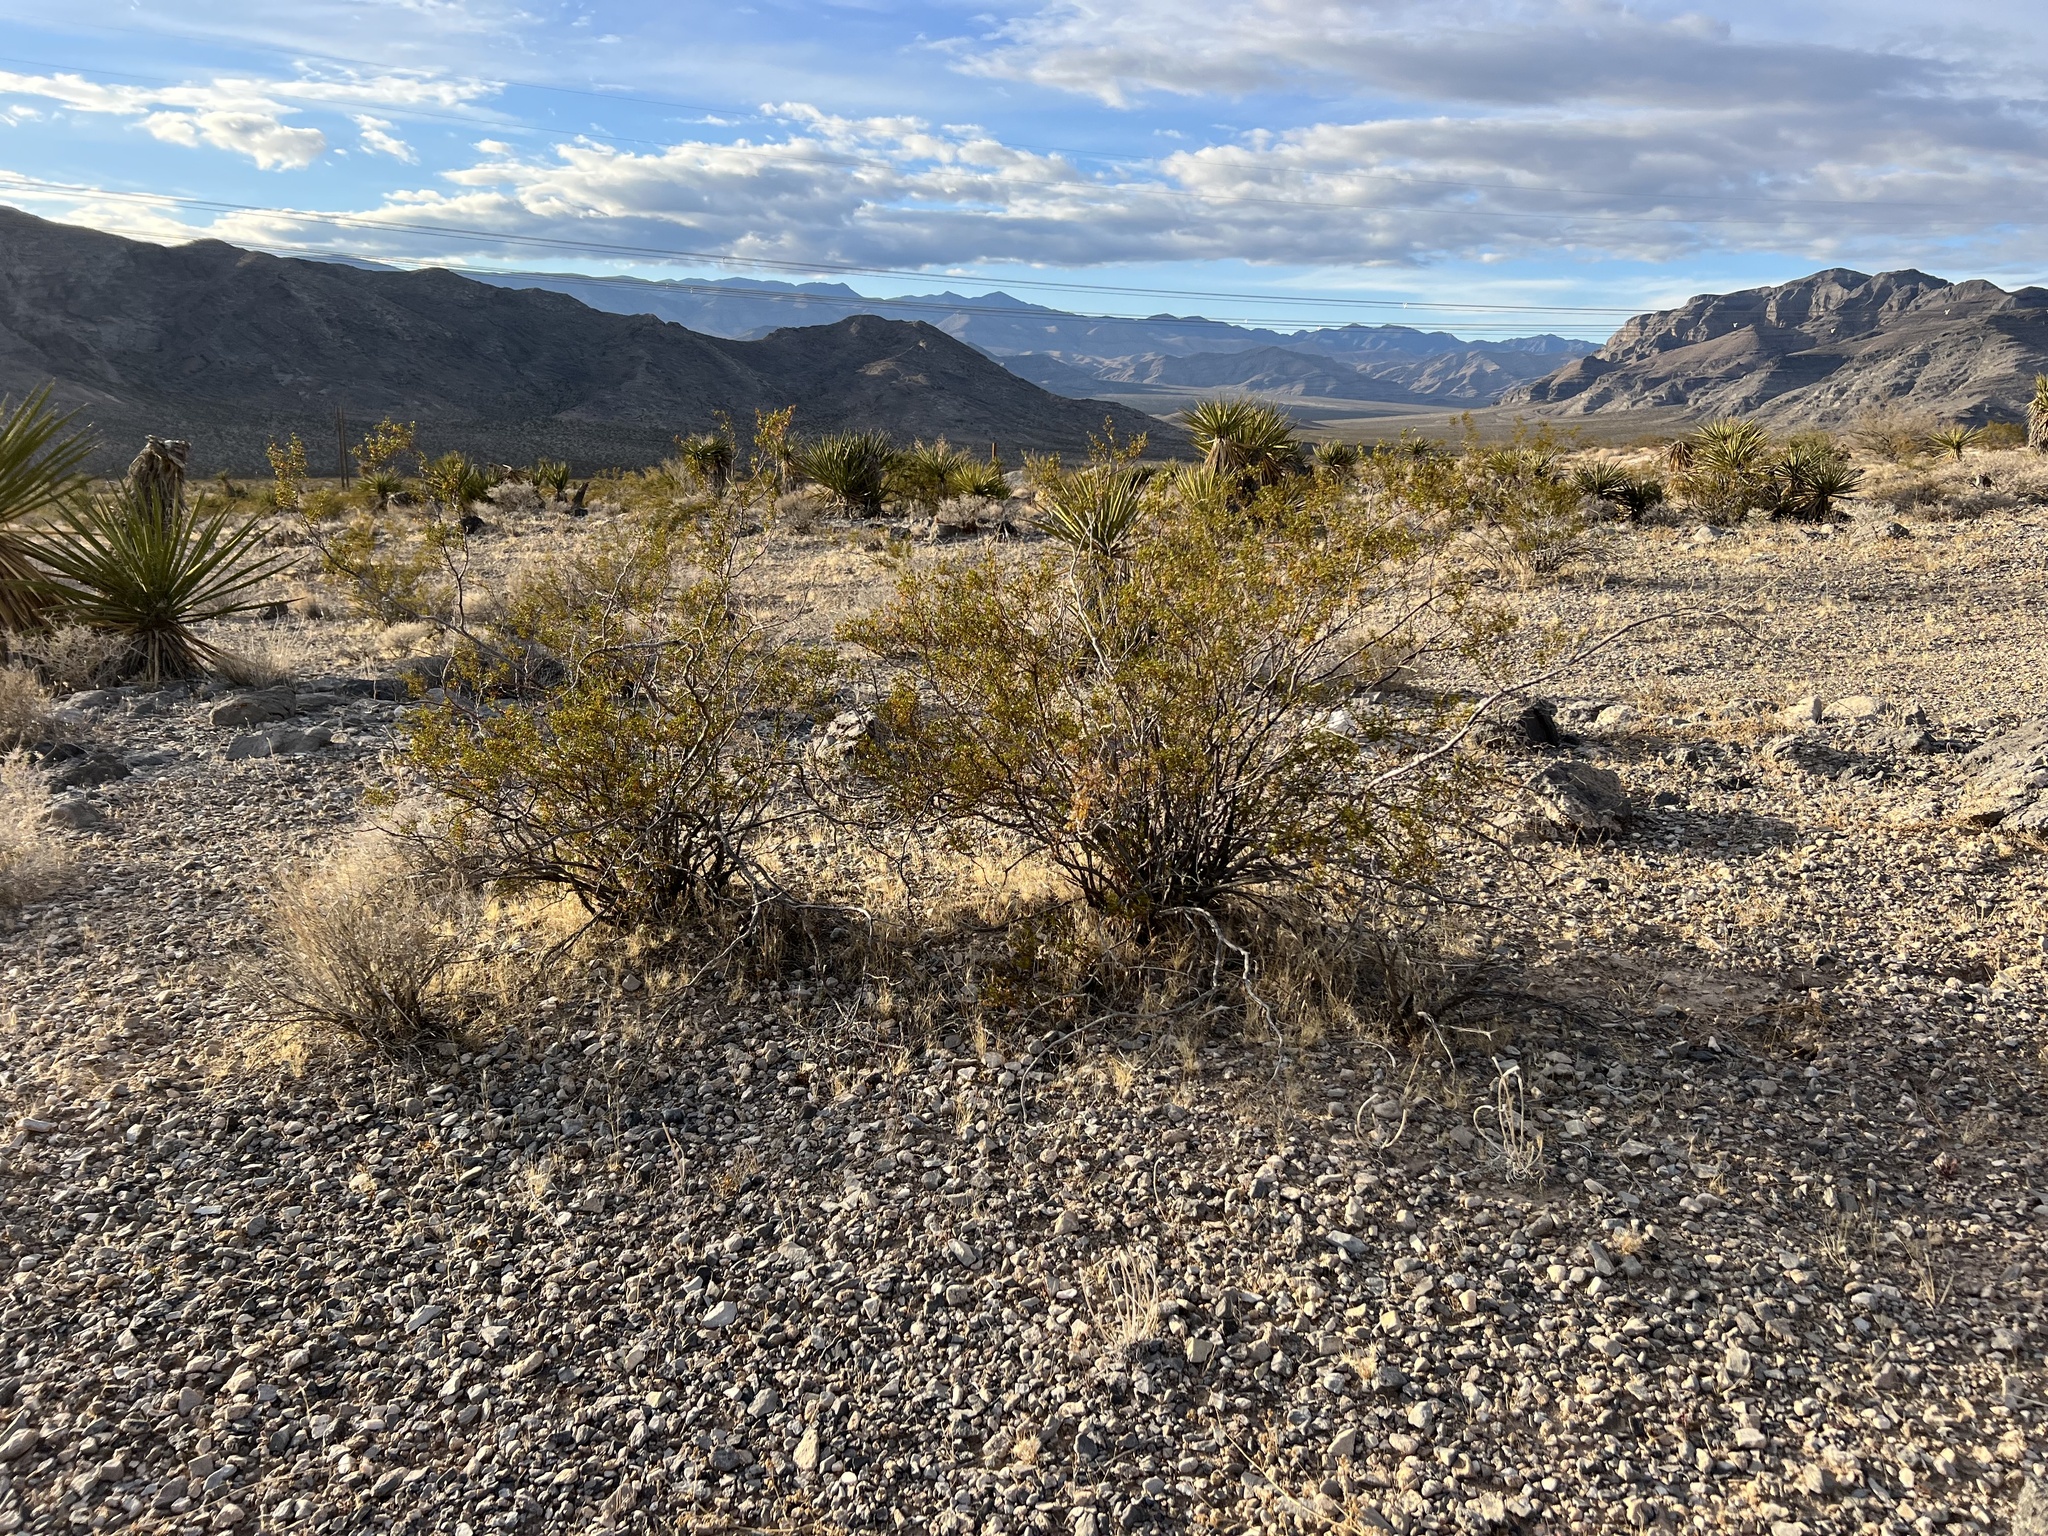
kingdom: Plantae
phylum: Tracheophyta
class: Magnoliopsida
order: Zygophyllales
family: Zygophyllaceae
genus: Larrea
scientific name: Larrea tridentata
